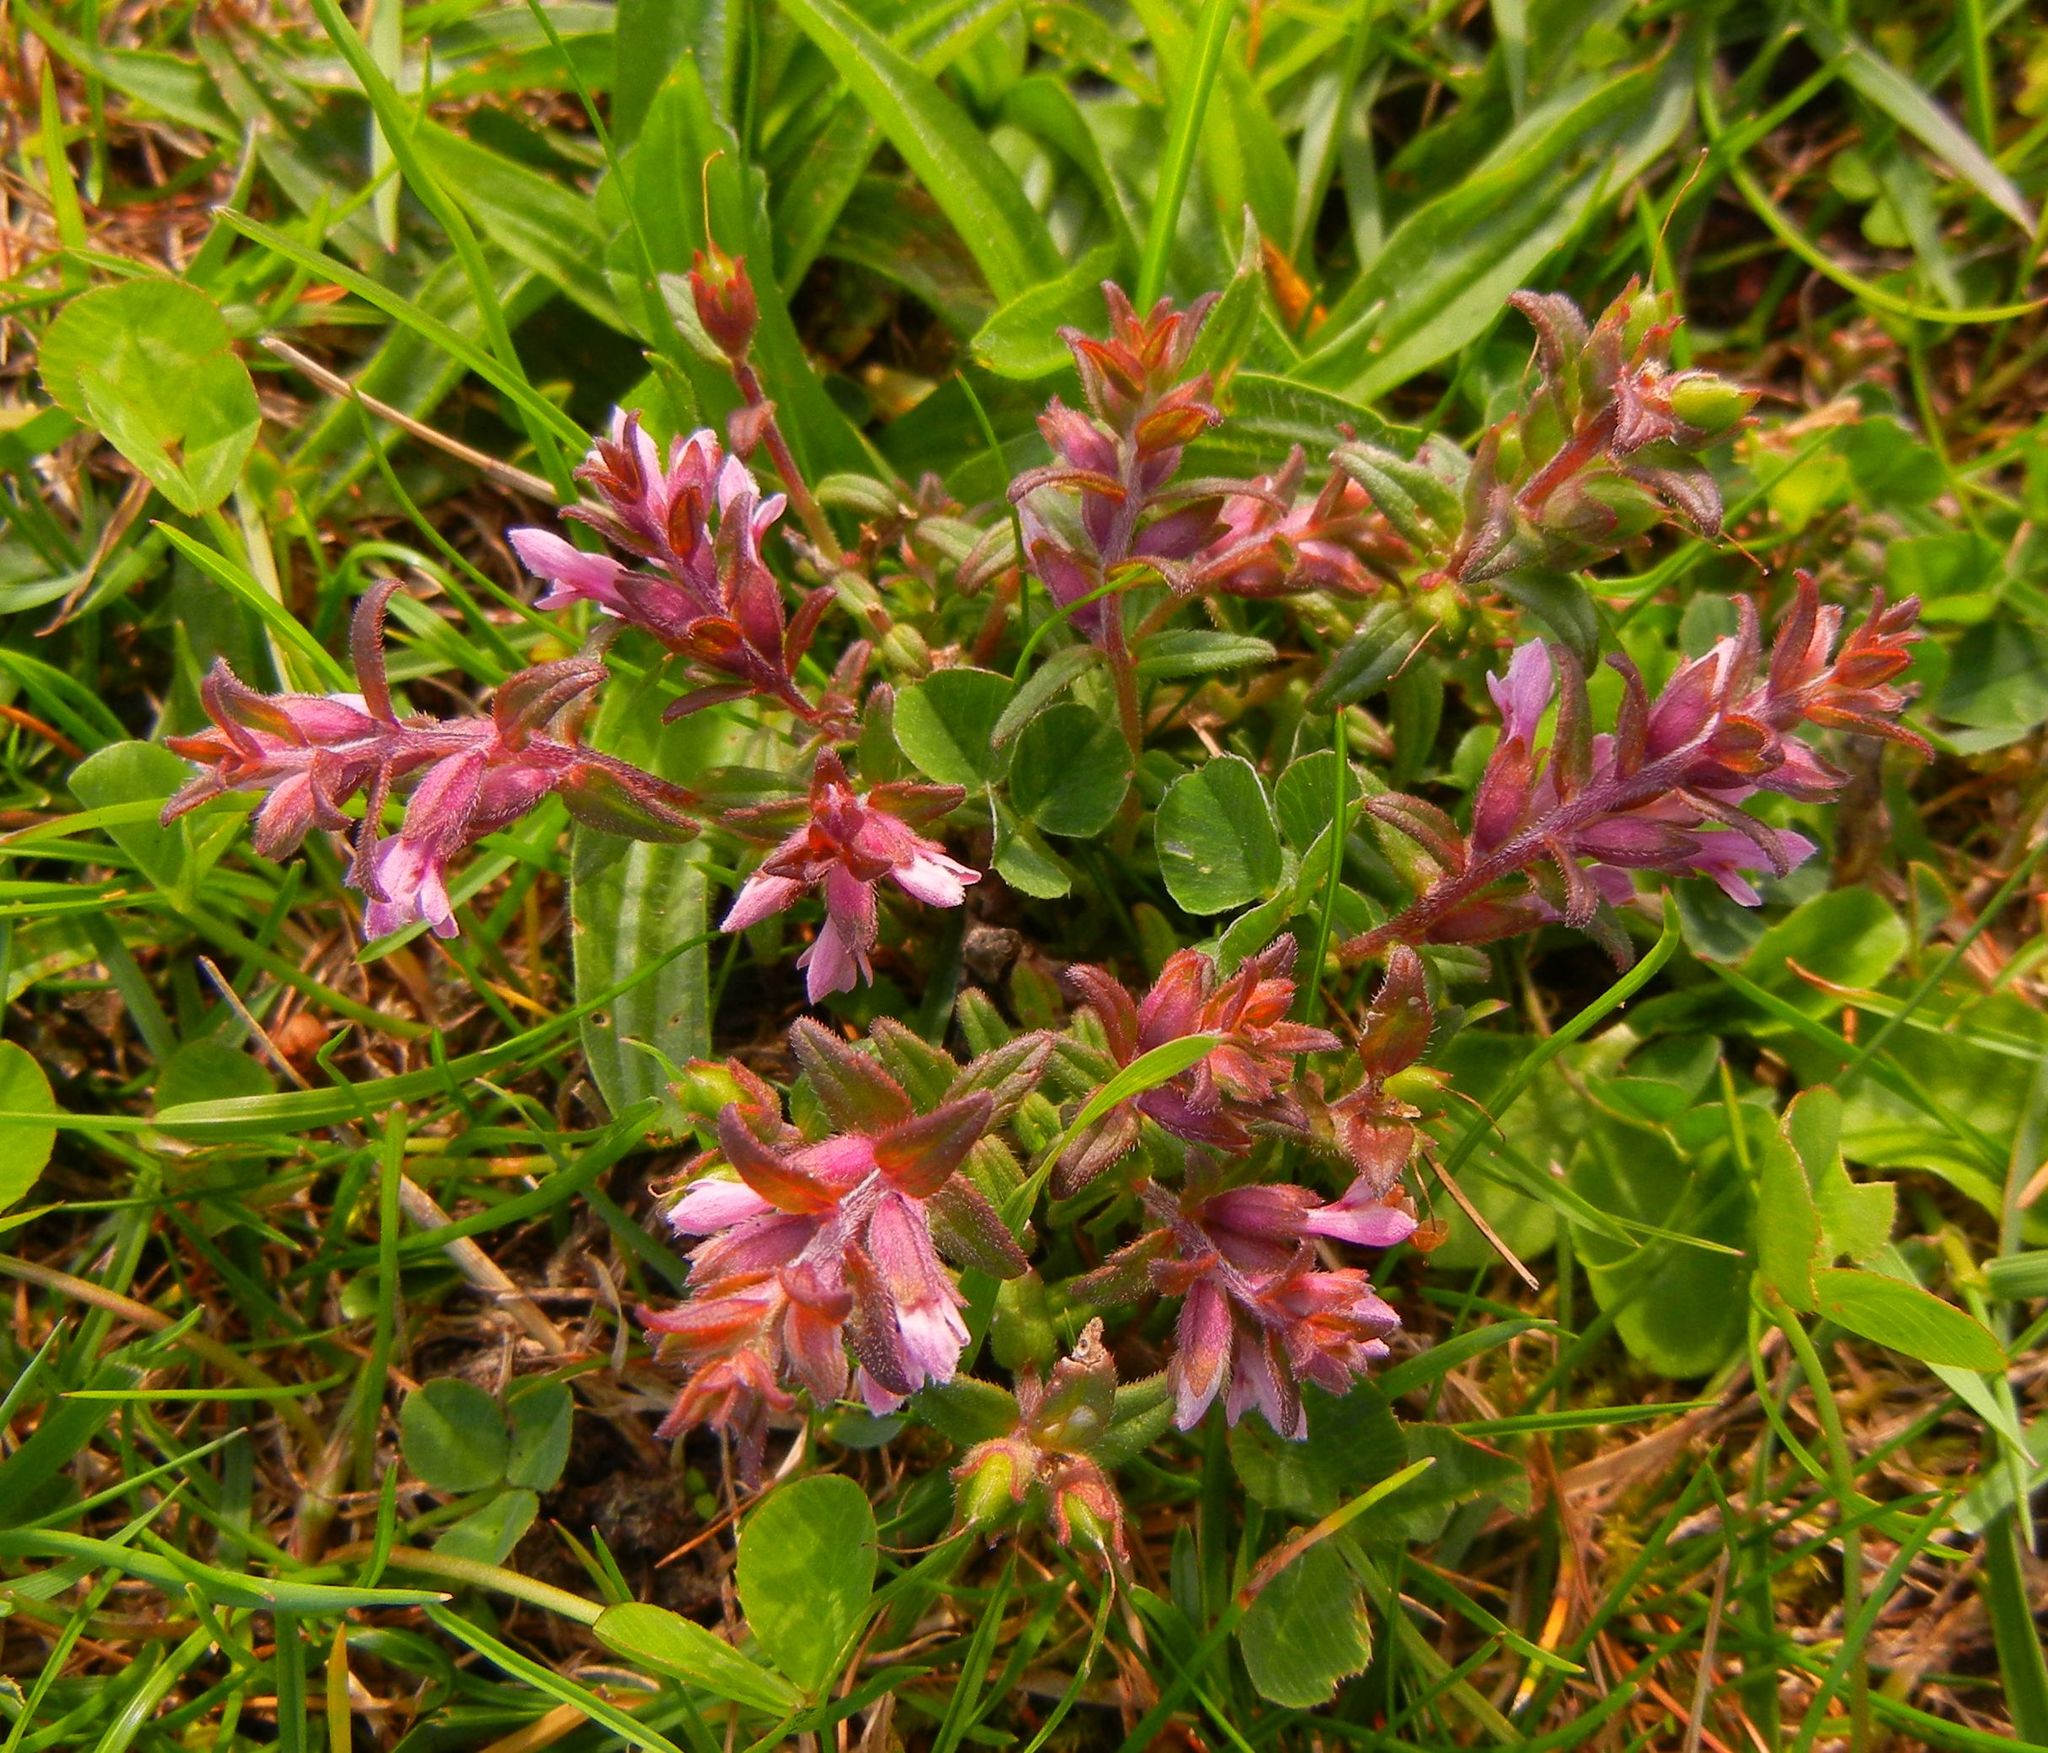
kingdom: Plantae
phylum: Tracheophyta
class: Magnoliopsida
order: Lamiales
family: Orobanchaceae
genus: Odontites
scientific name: Odontites vernus
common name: Red bartsia
